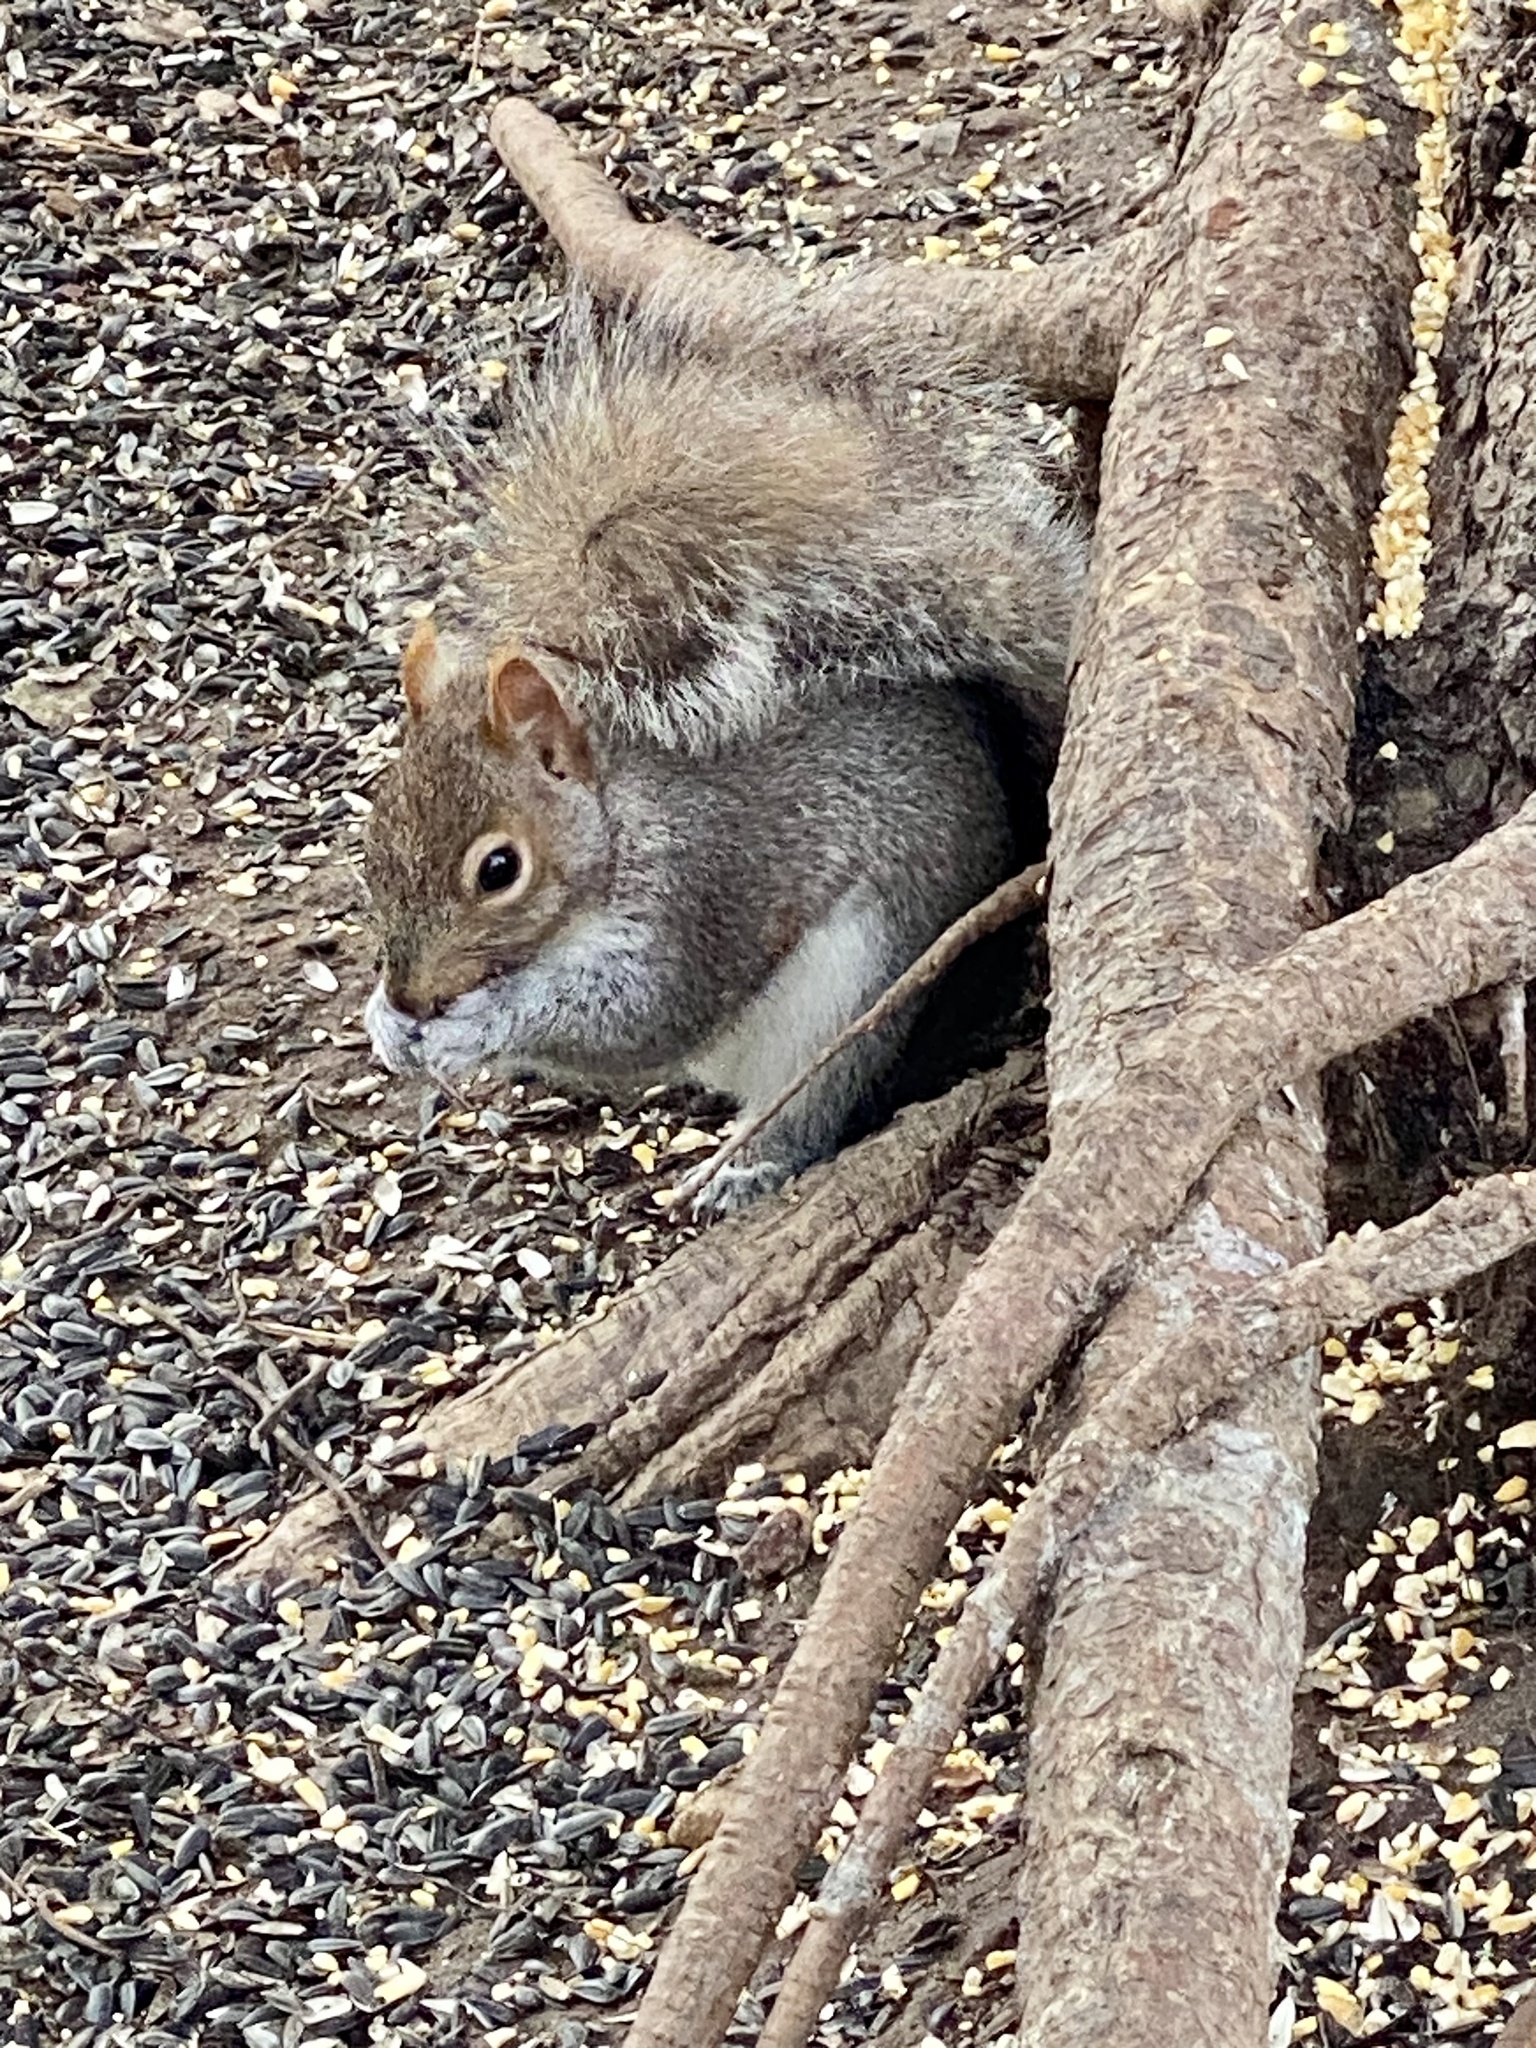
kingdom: Animalia
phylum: Chordata
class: Mammalia
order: Rodentia
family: Sciuridae
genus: Sciurus
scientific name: Sciurus carolinensis
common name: Eastern gray squirrel
